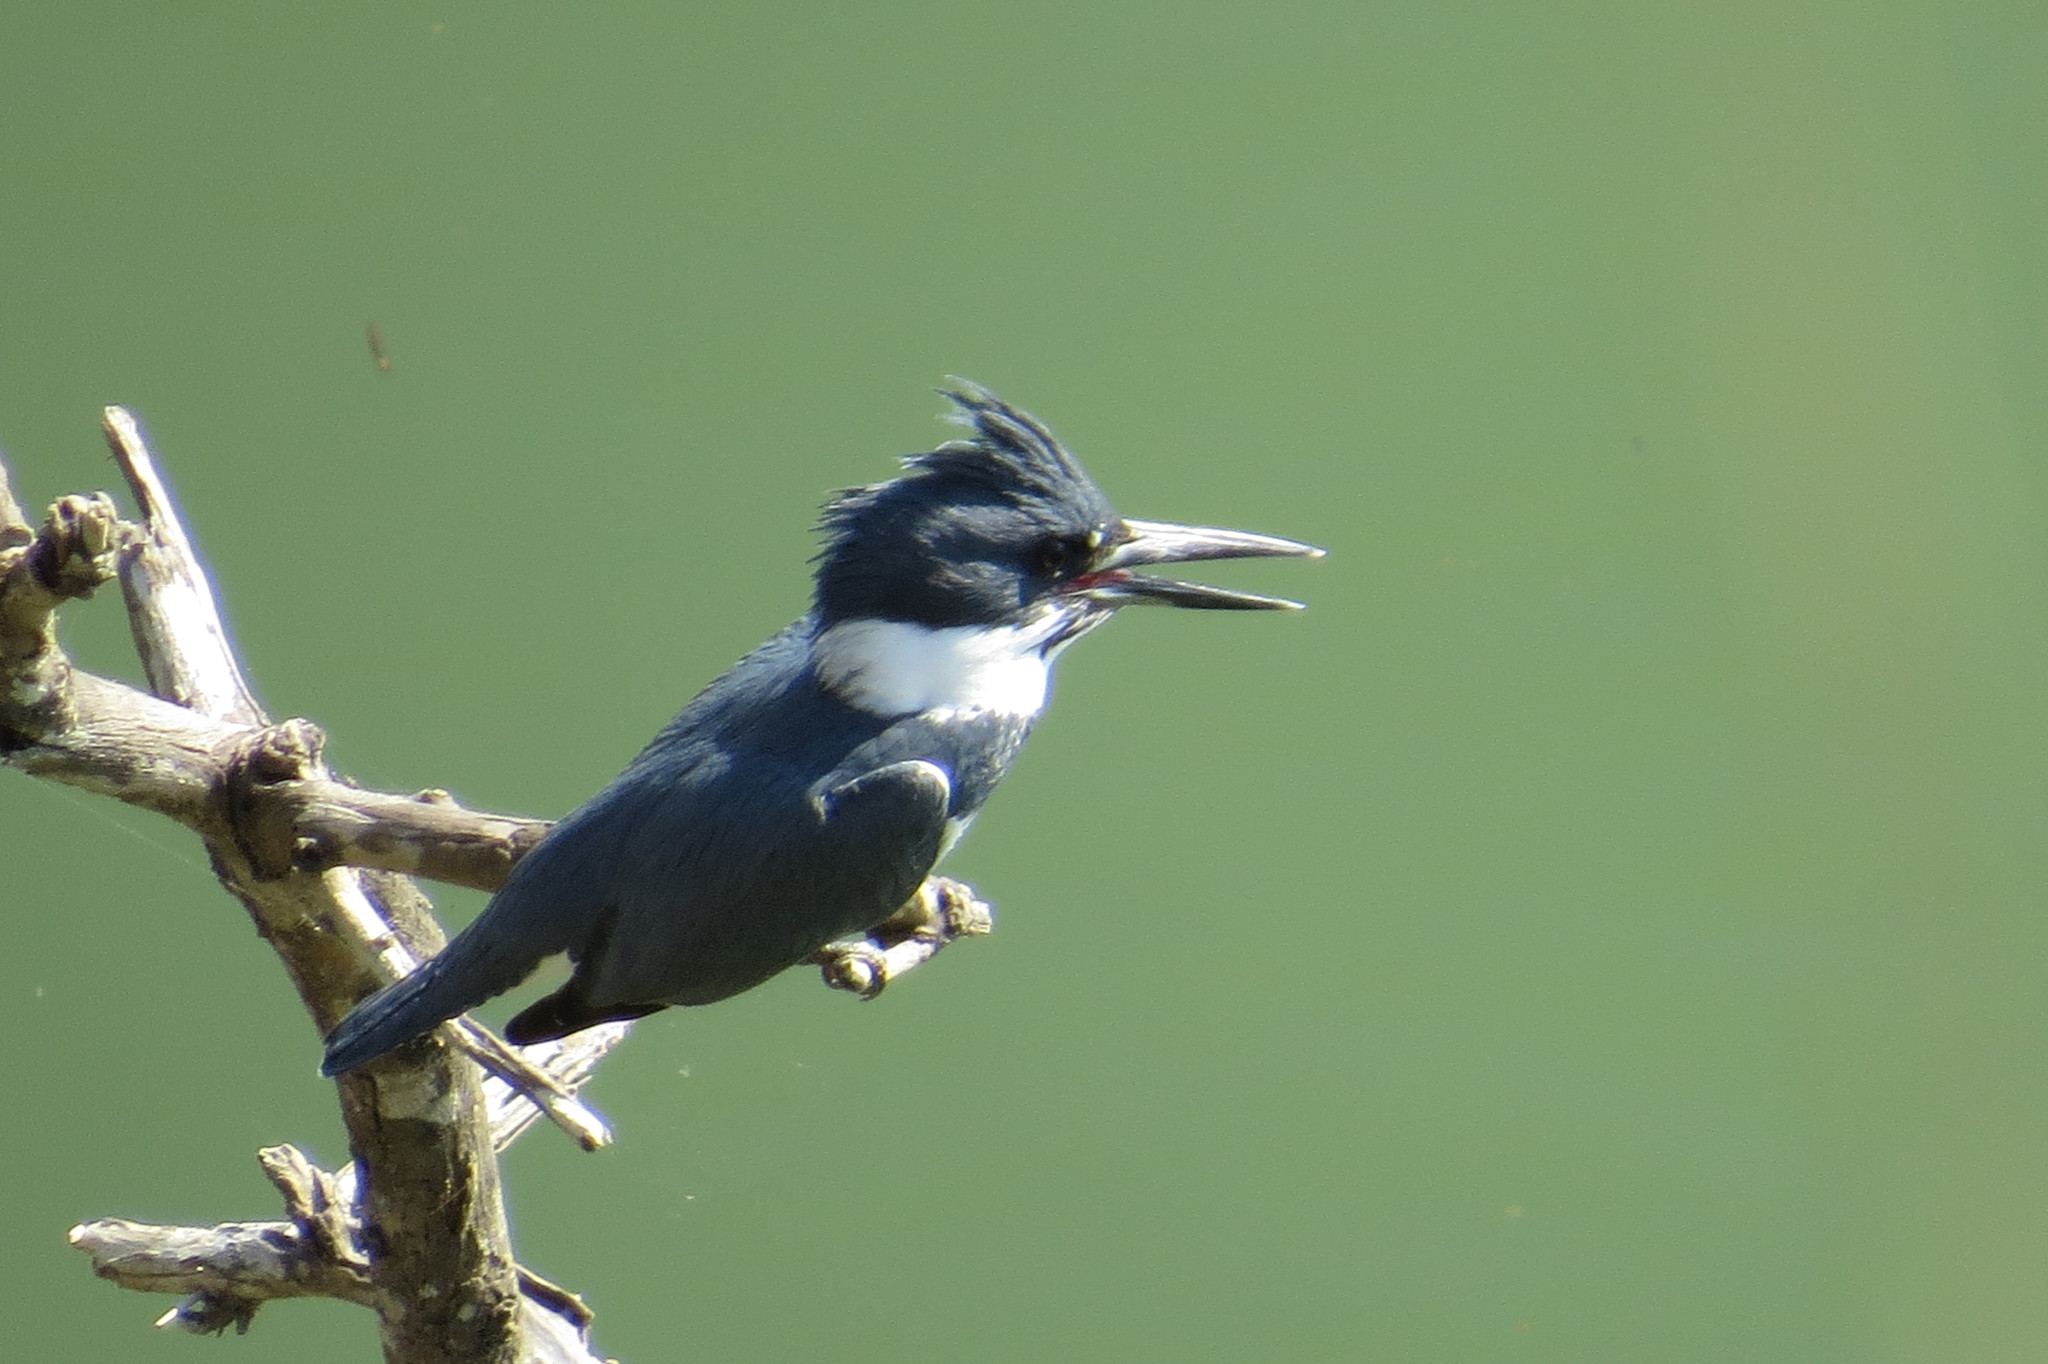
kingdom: Animalia
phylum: Chordata
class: Aves
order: Coraciiformes
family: Alcedinidae
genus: Megaceryle
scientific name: Megaceryle alcyon
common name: Belted kingfisher
